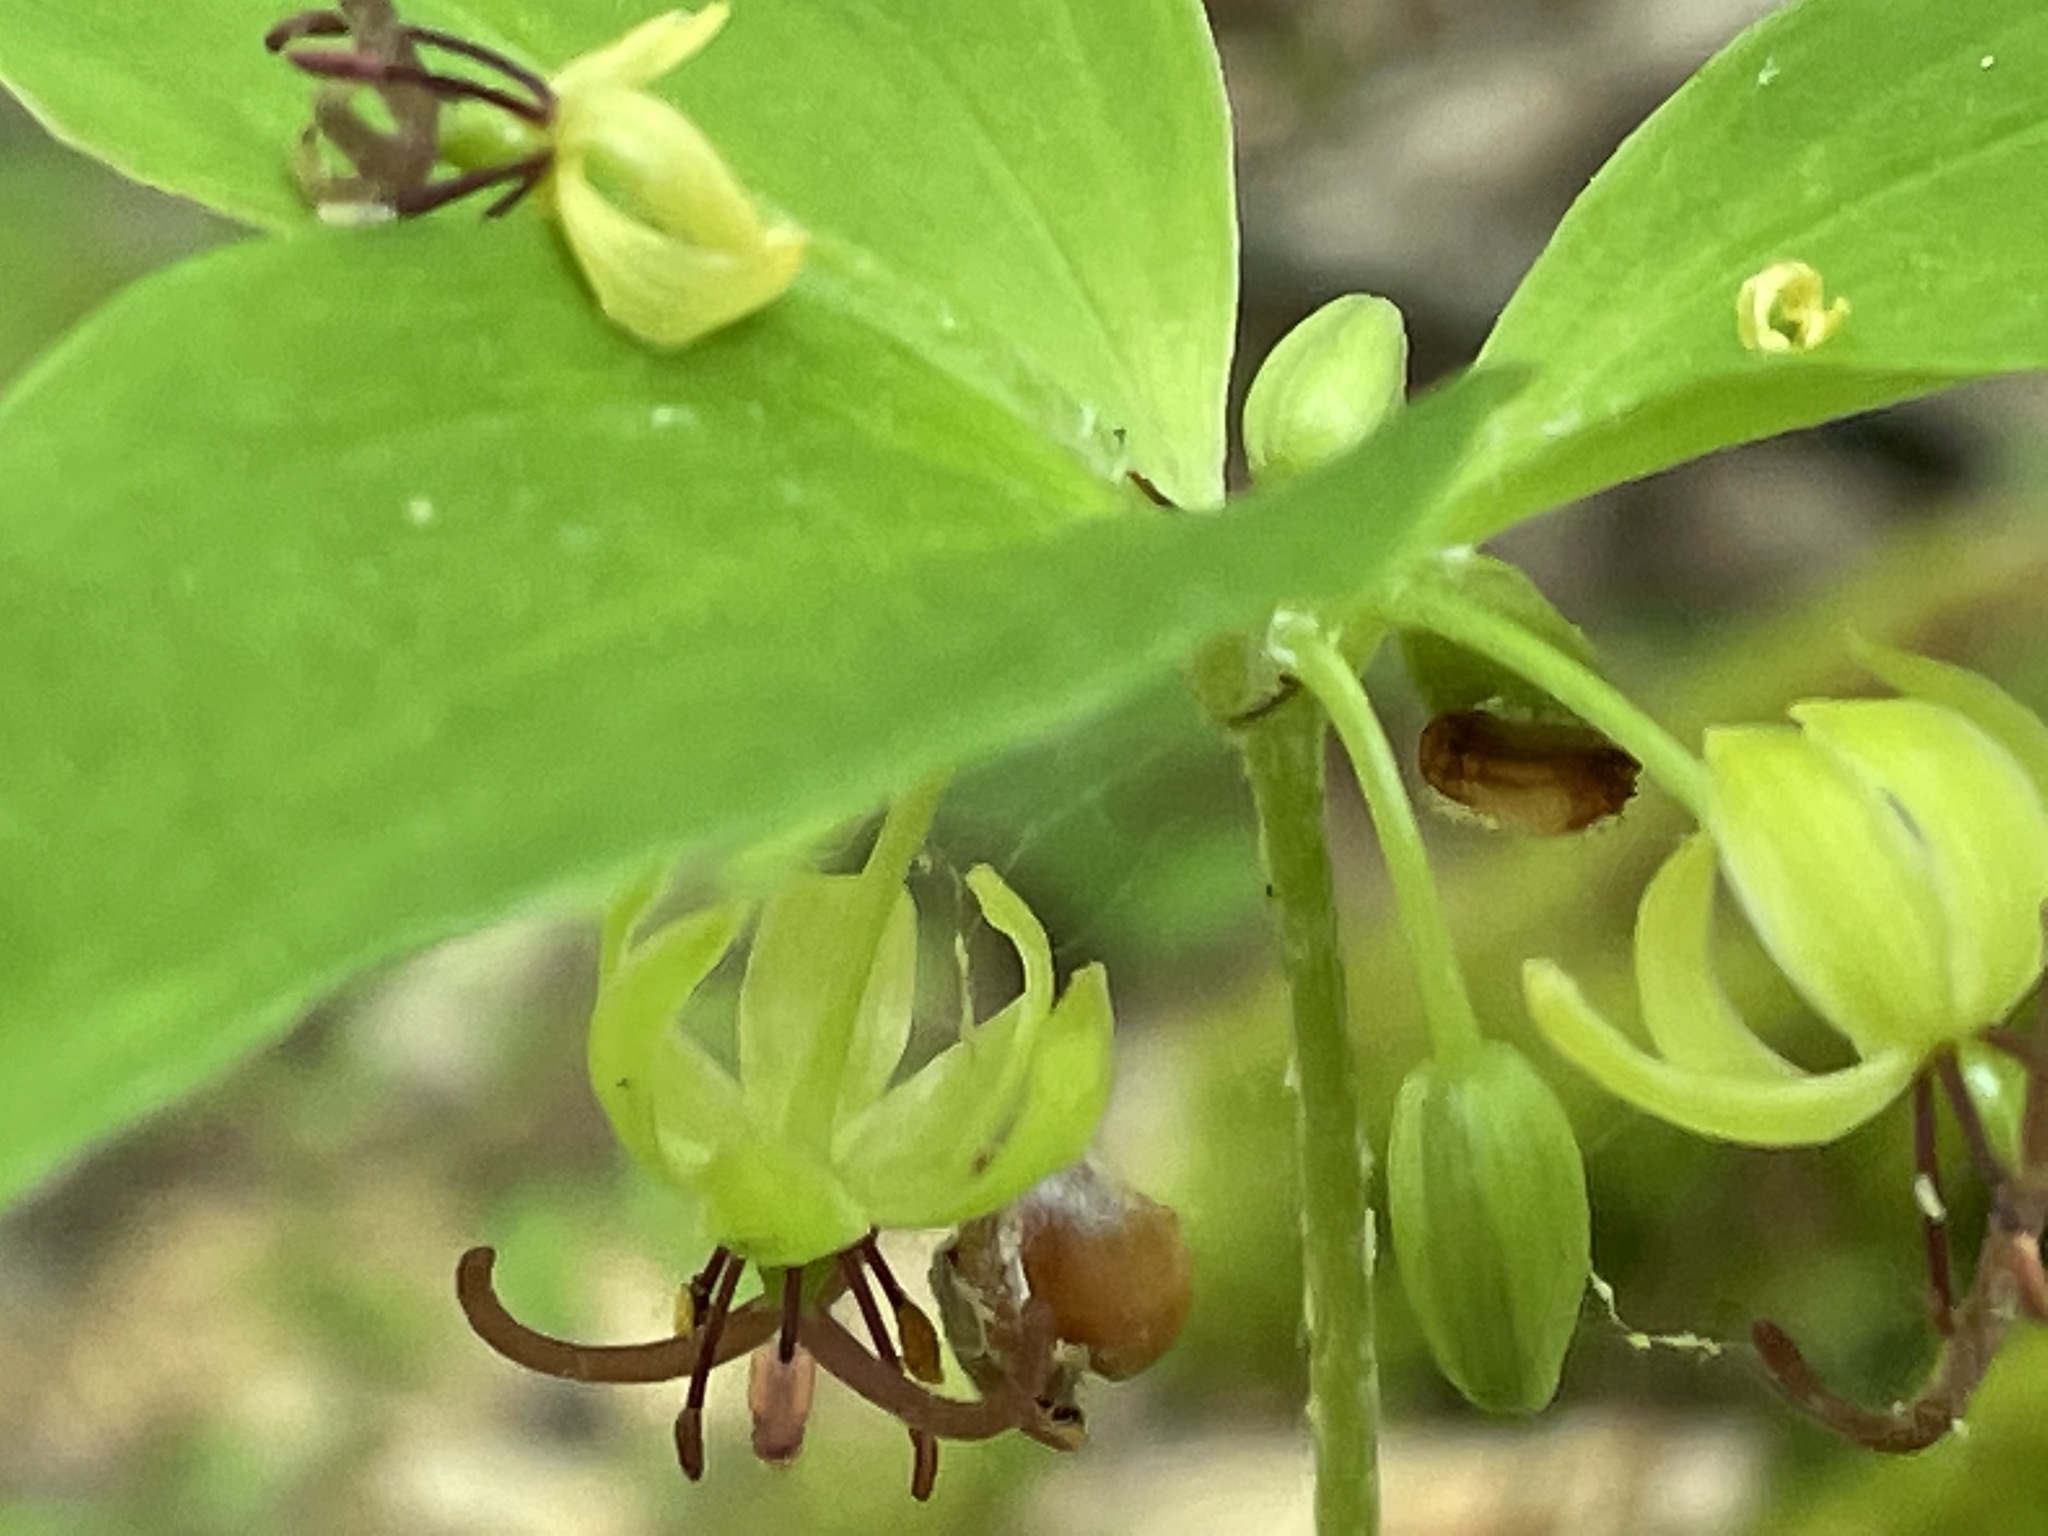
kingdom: Plantae
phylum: Tracheophyta
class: Liliopsida
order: Liliales
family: Liliaceae
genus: Medeola
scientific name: Medeola virginiana
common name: Indian cucumber-root
